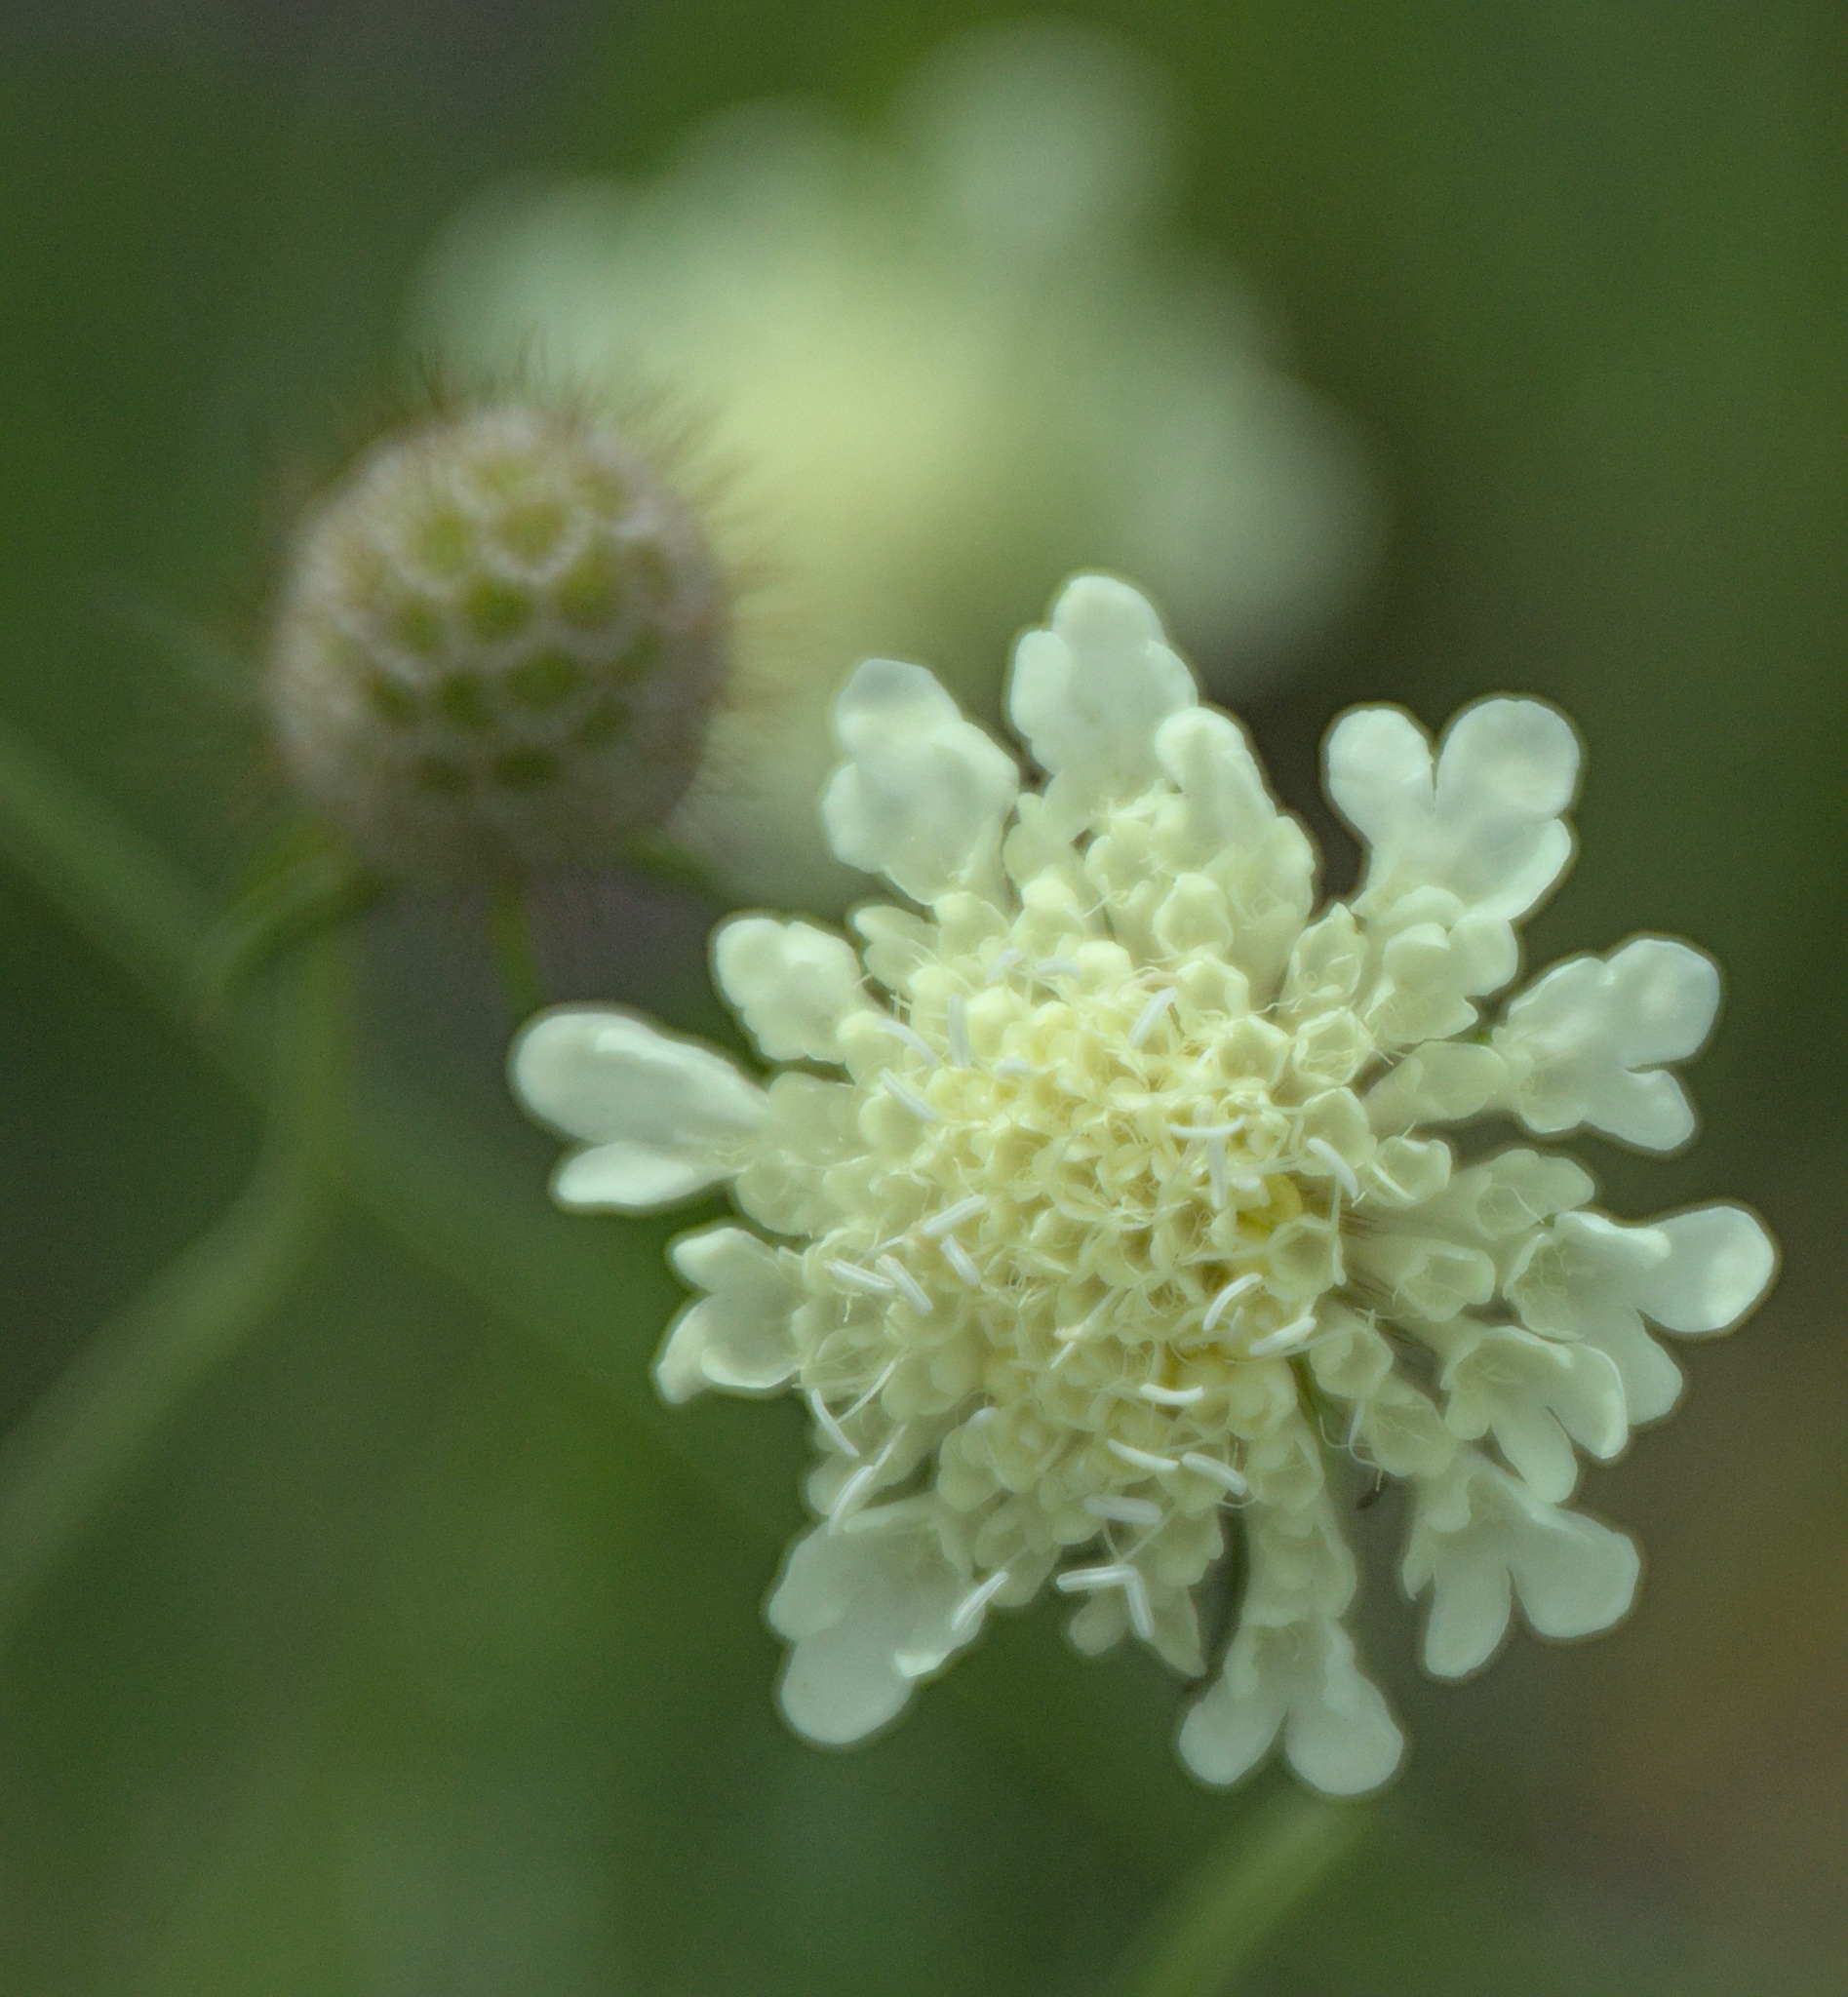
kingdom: Plantae
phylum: Tracheophyta
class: Magnoliopsida
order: Dipsacales
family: Caprifoliaceae
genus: Scabiosa
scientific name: Scabiosa ochroleuca
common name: Cream pincushions
